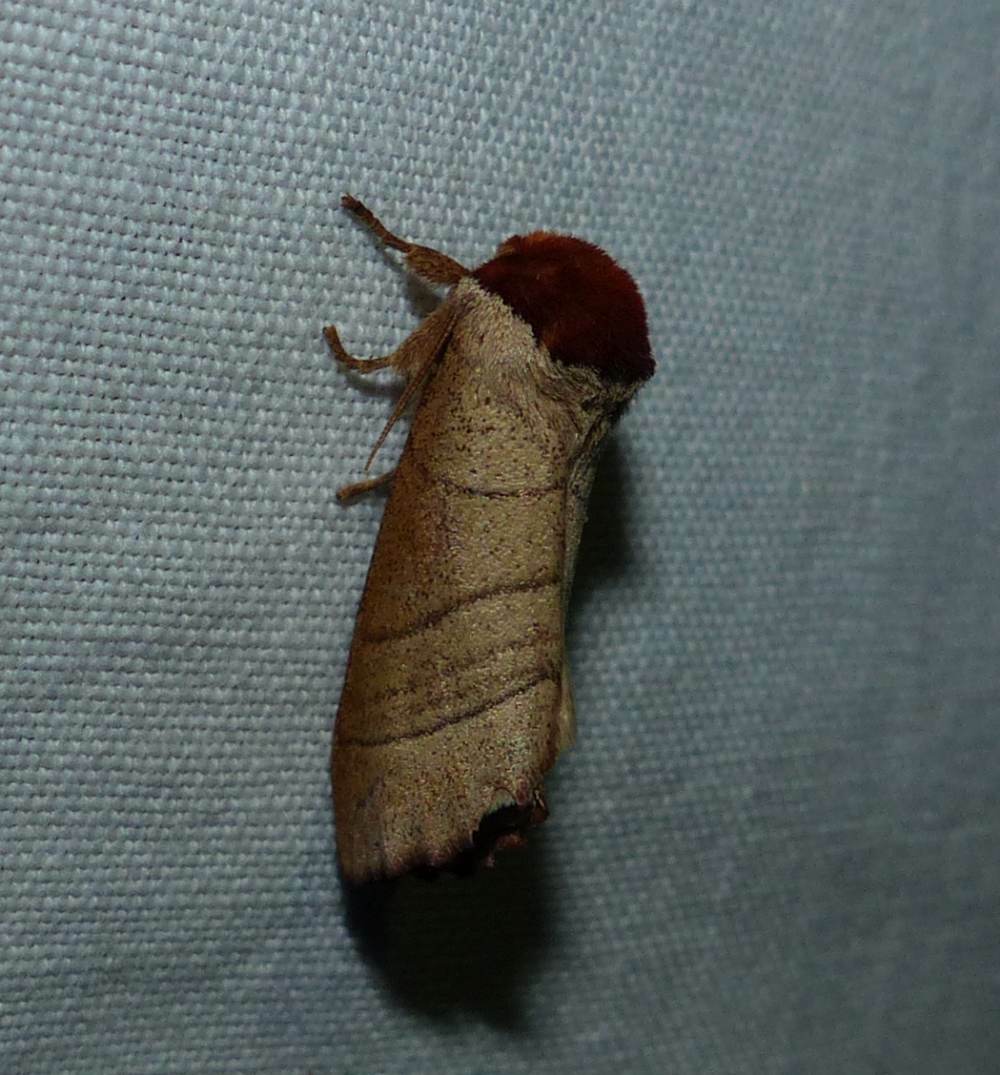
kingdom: Animalia
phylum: Arthropoda
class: Insecta
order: Lepidoptera
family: Notodontidae
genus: Datana
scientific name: Datana ministra
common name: Yellow-necked caterpillar moth
